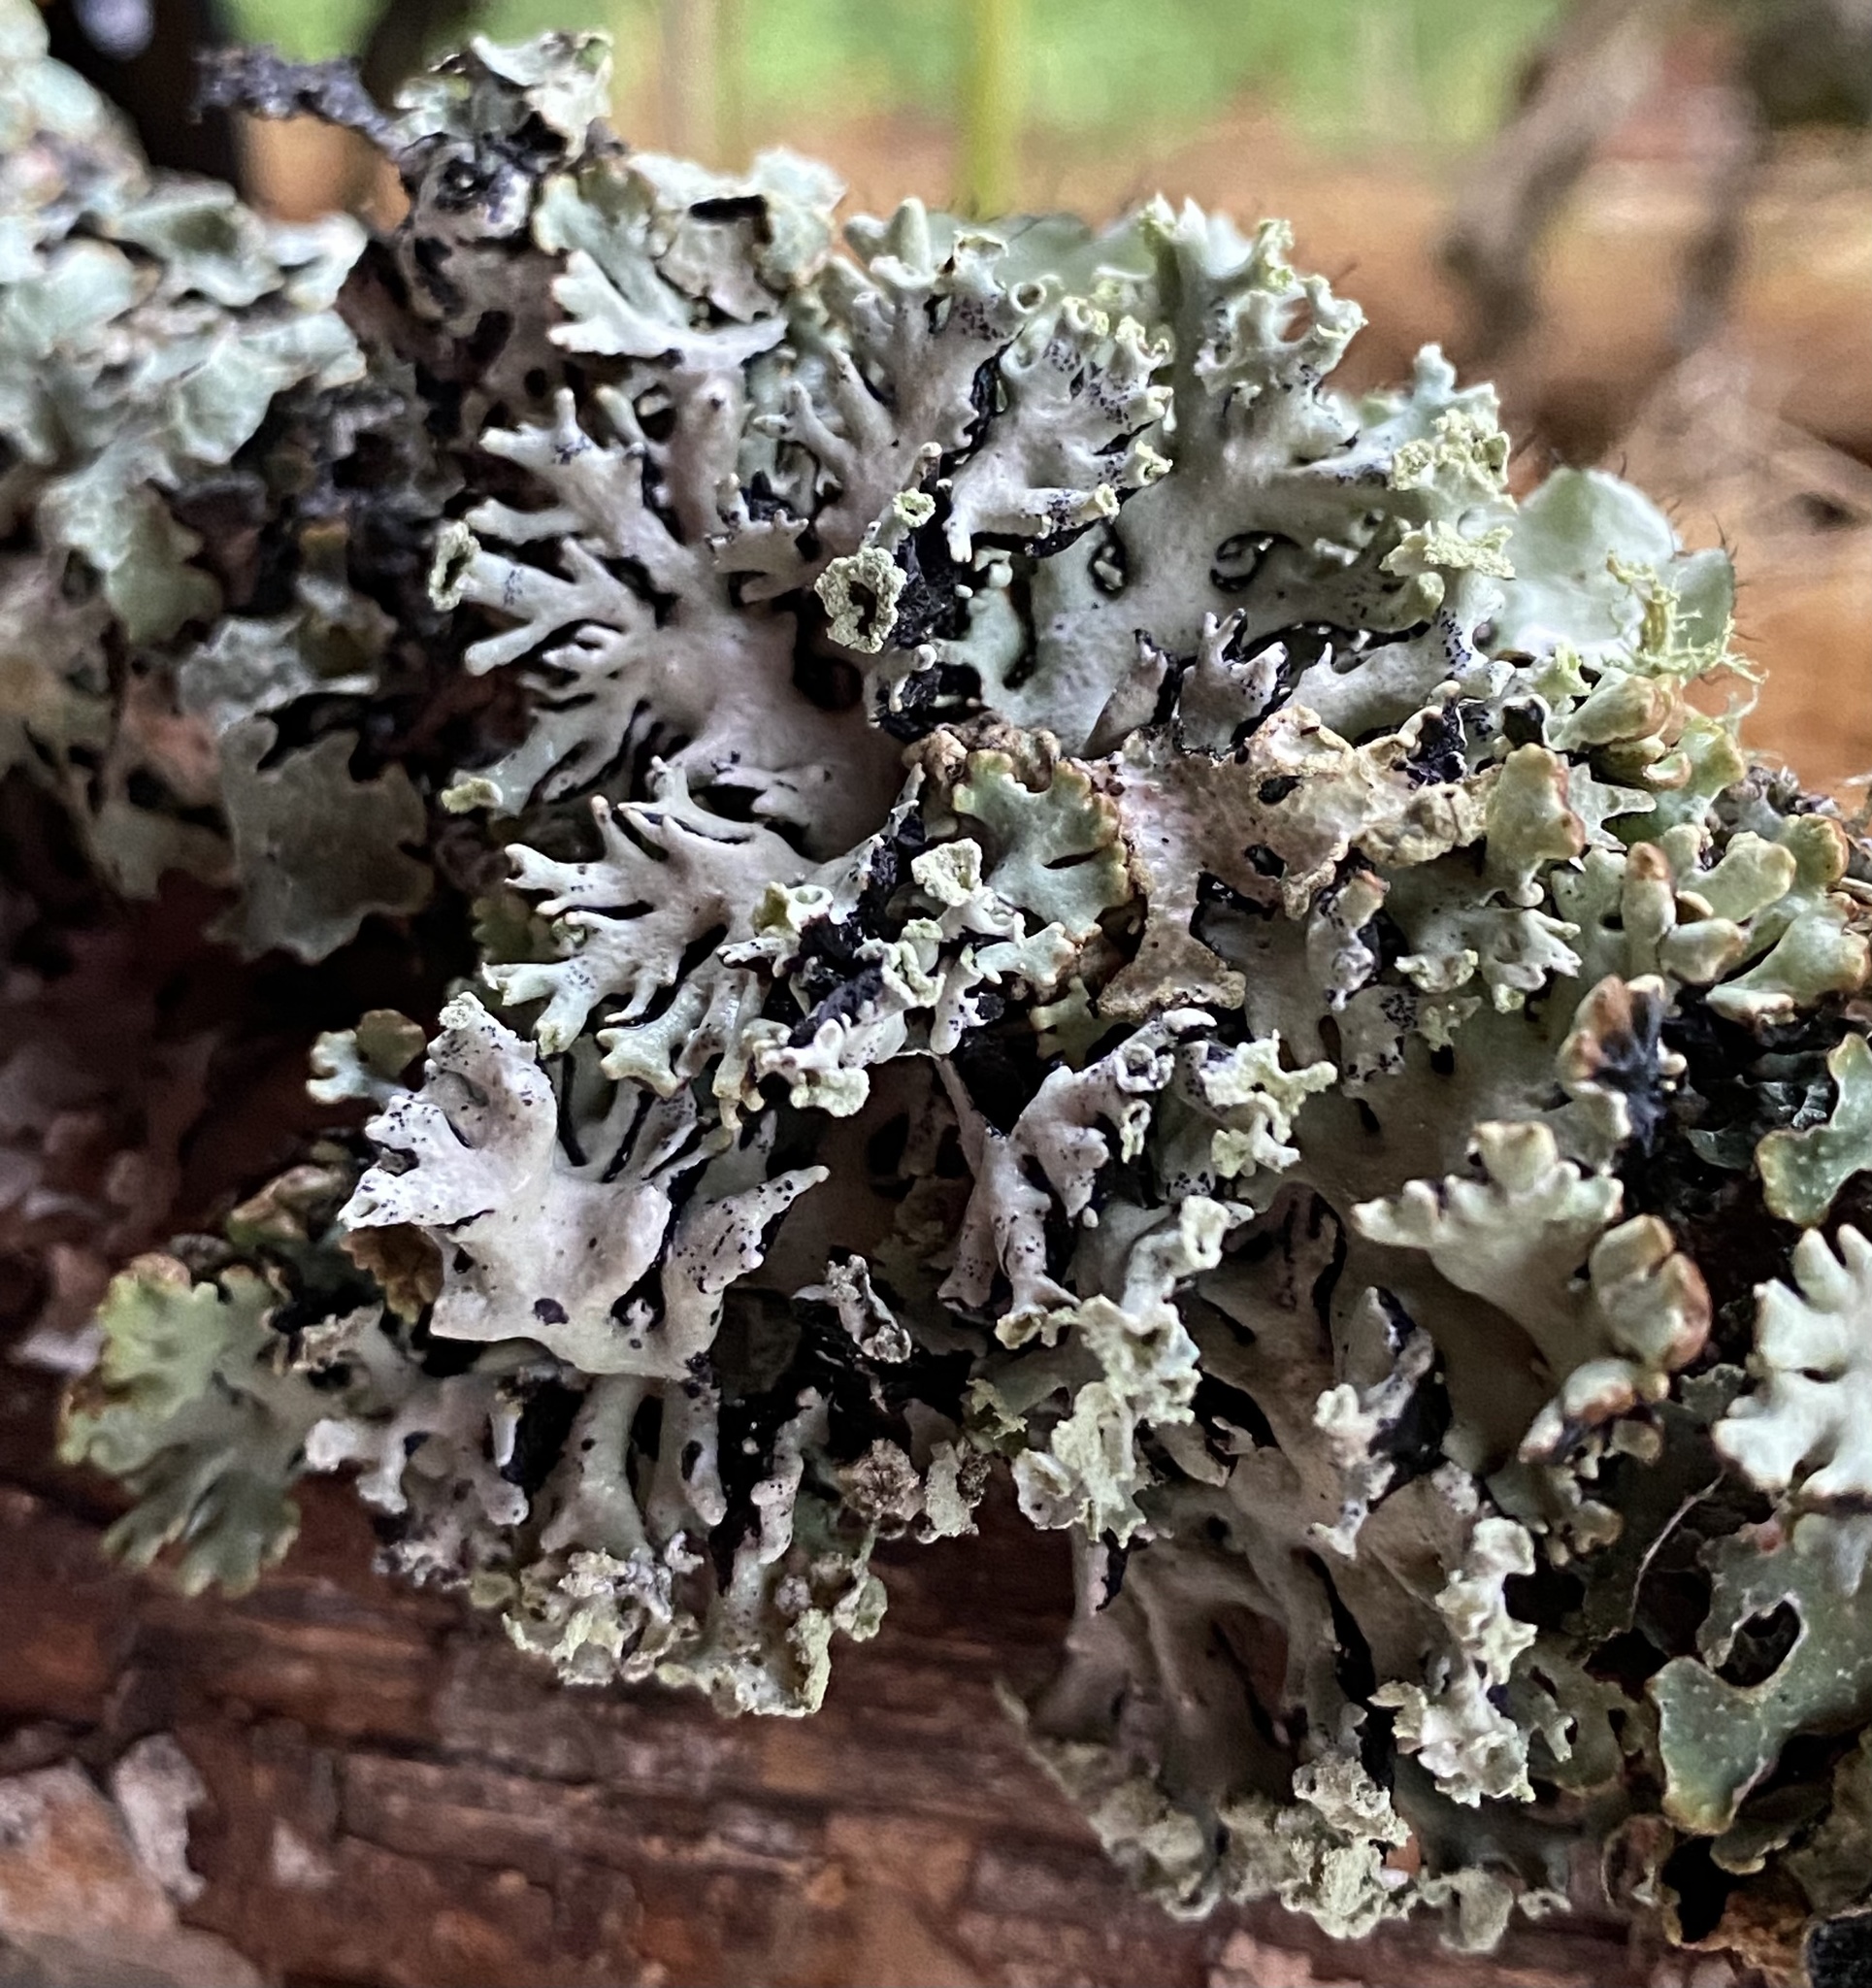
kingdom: Fungi
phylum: Ascomycota
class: Lecanoromycetes
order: Lecanorales
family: Parmeliaceae
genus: Hypogymnia
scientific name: Hypogymnia physodes
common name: Dark crottle
